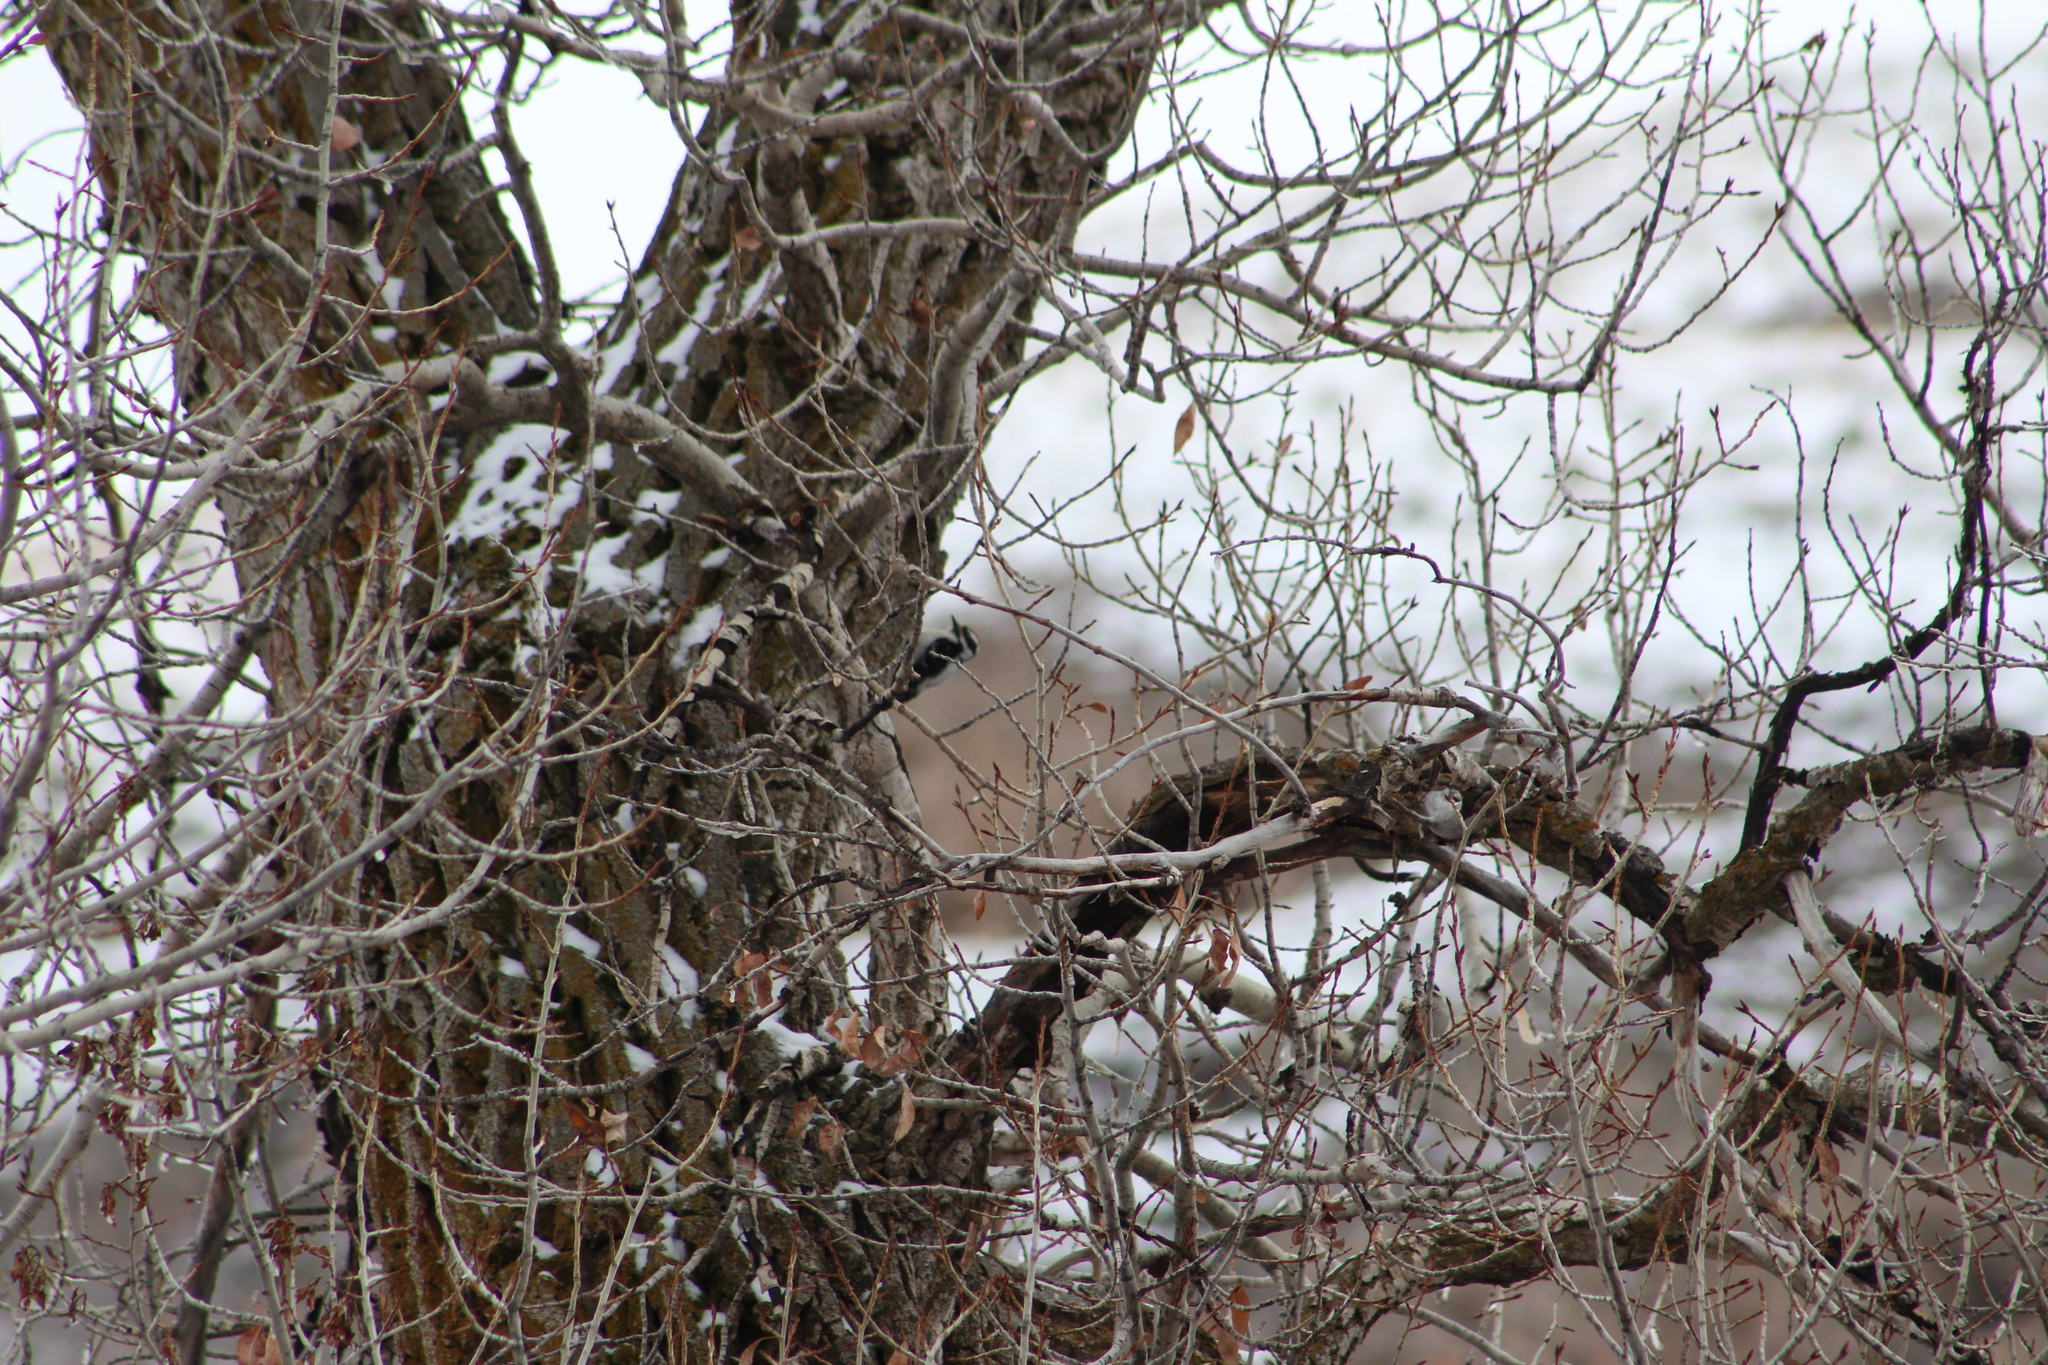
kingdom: Animalia
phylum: Chordata
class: Aves
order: Piciformes
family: Picidae
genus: Dryobates
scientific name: Dryobates pubescens
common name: Downy woodpecker
